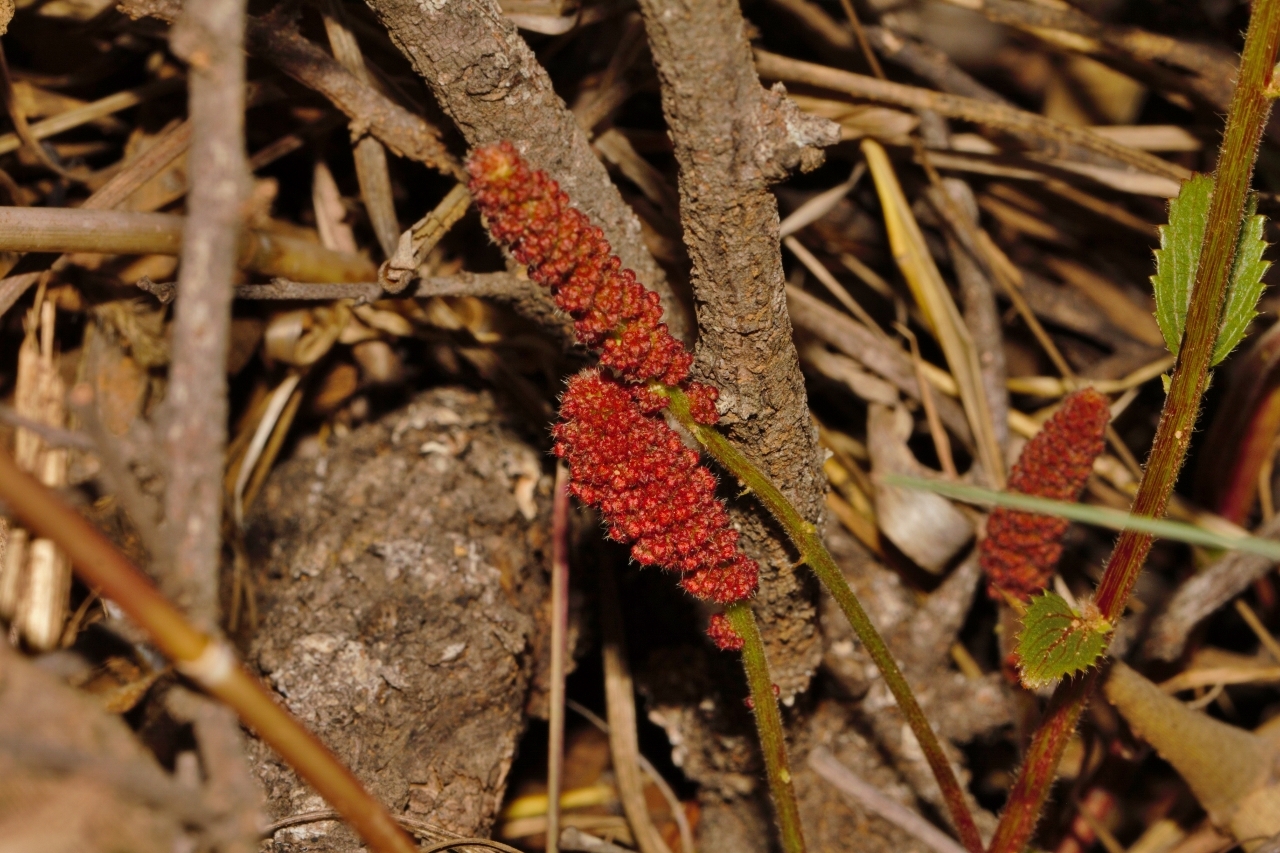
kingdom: Plantae
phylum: Tracheophyta
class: Magnoliopsida
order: Malpighiales
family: Euphorbiaceae
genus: Acalypha
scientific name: Acalypha caperonioides
